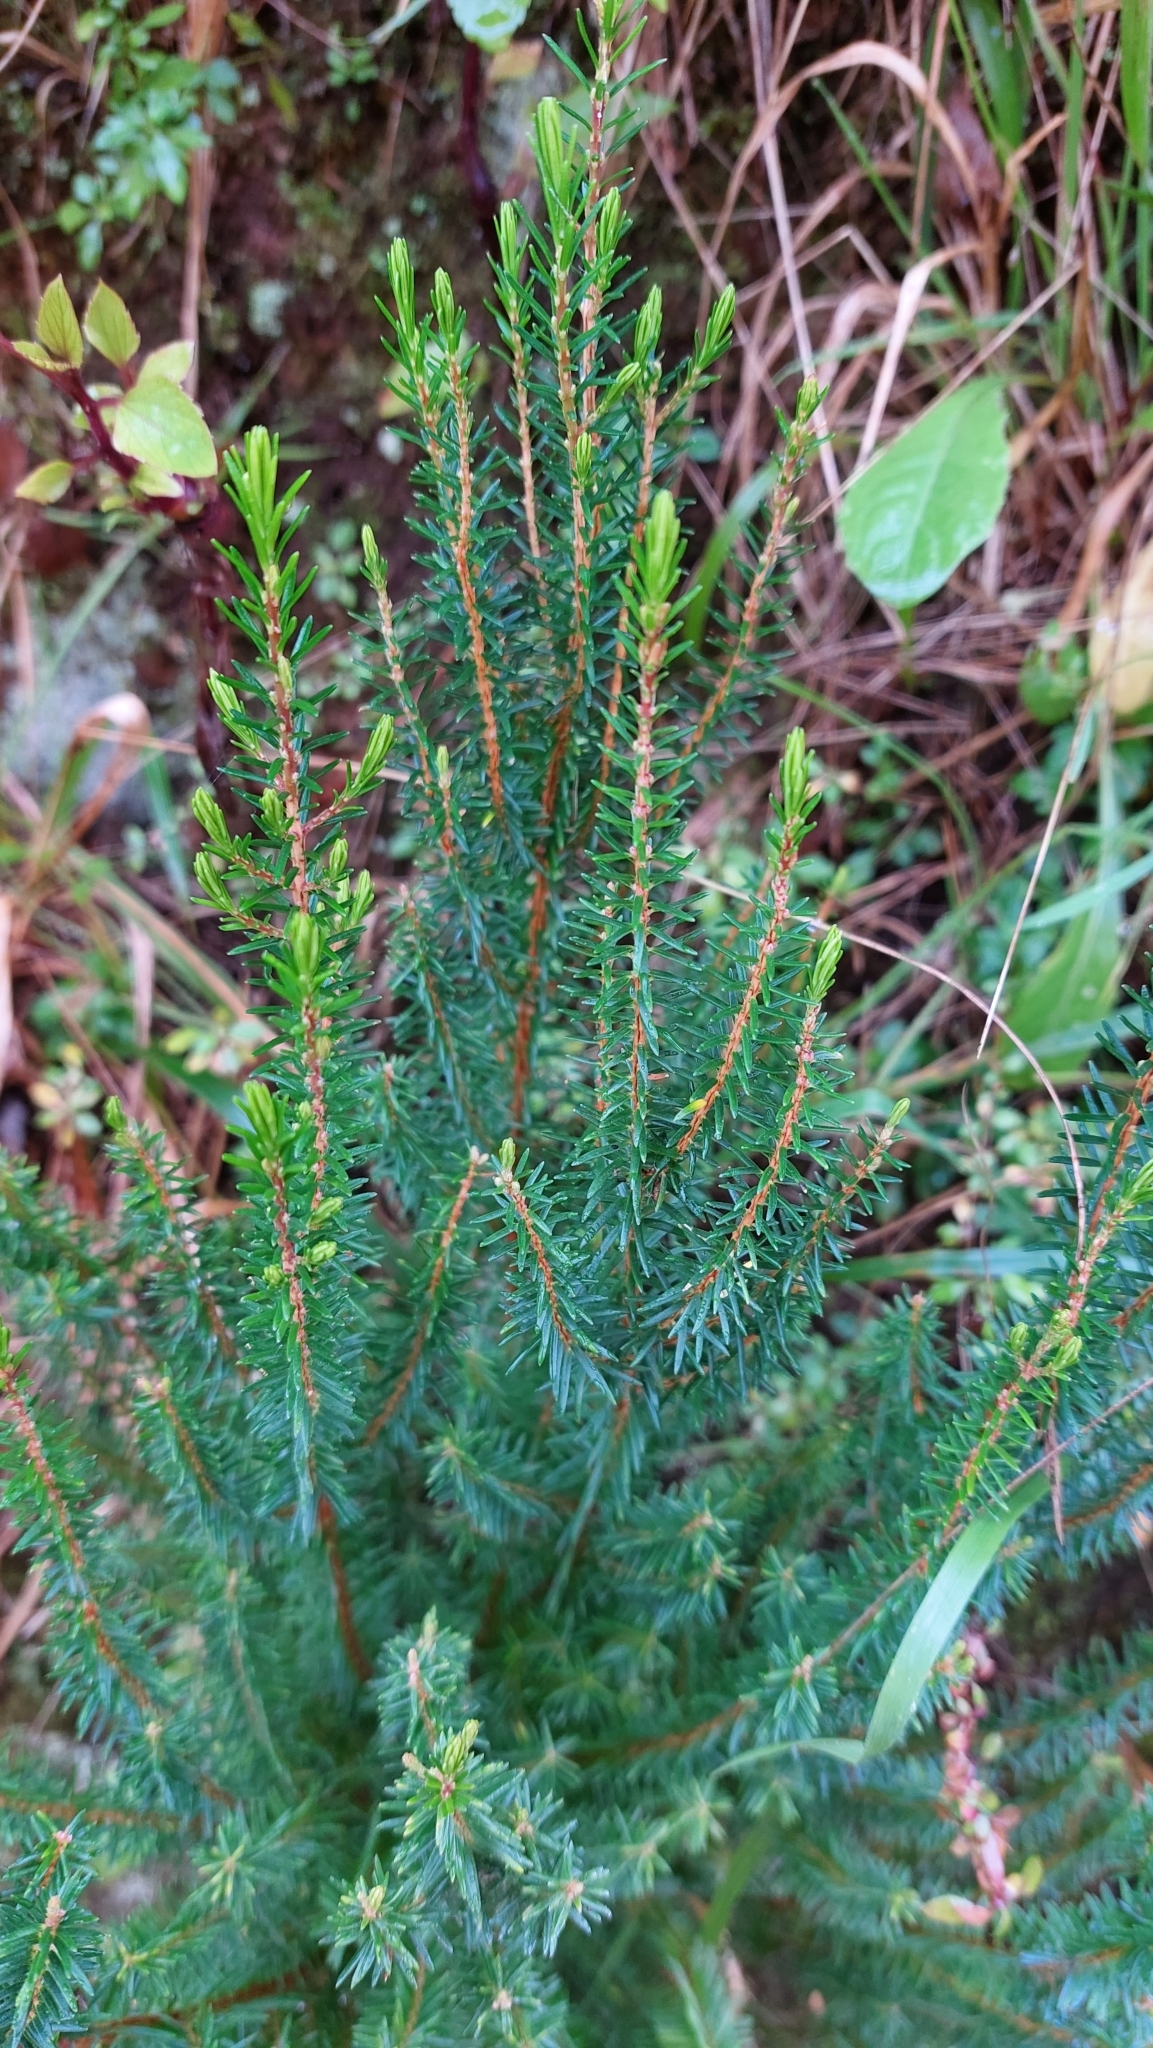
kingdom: Plantae
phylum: Tracheophyta
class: Magnoliopsida
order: Ericales
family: Ericaceae
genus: Erica
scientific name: Erica platycodon
